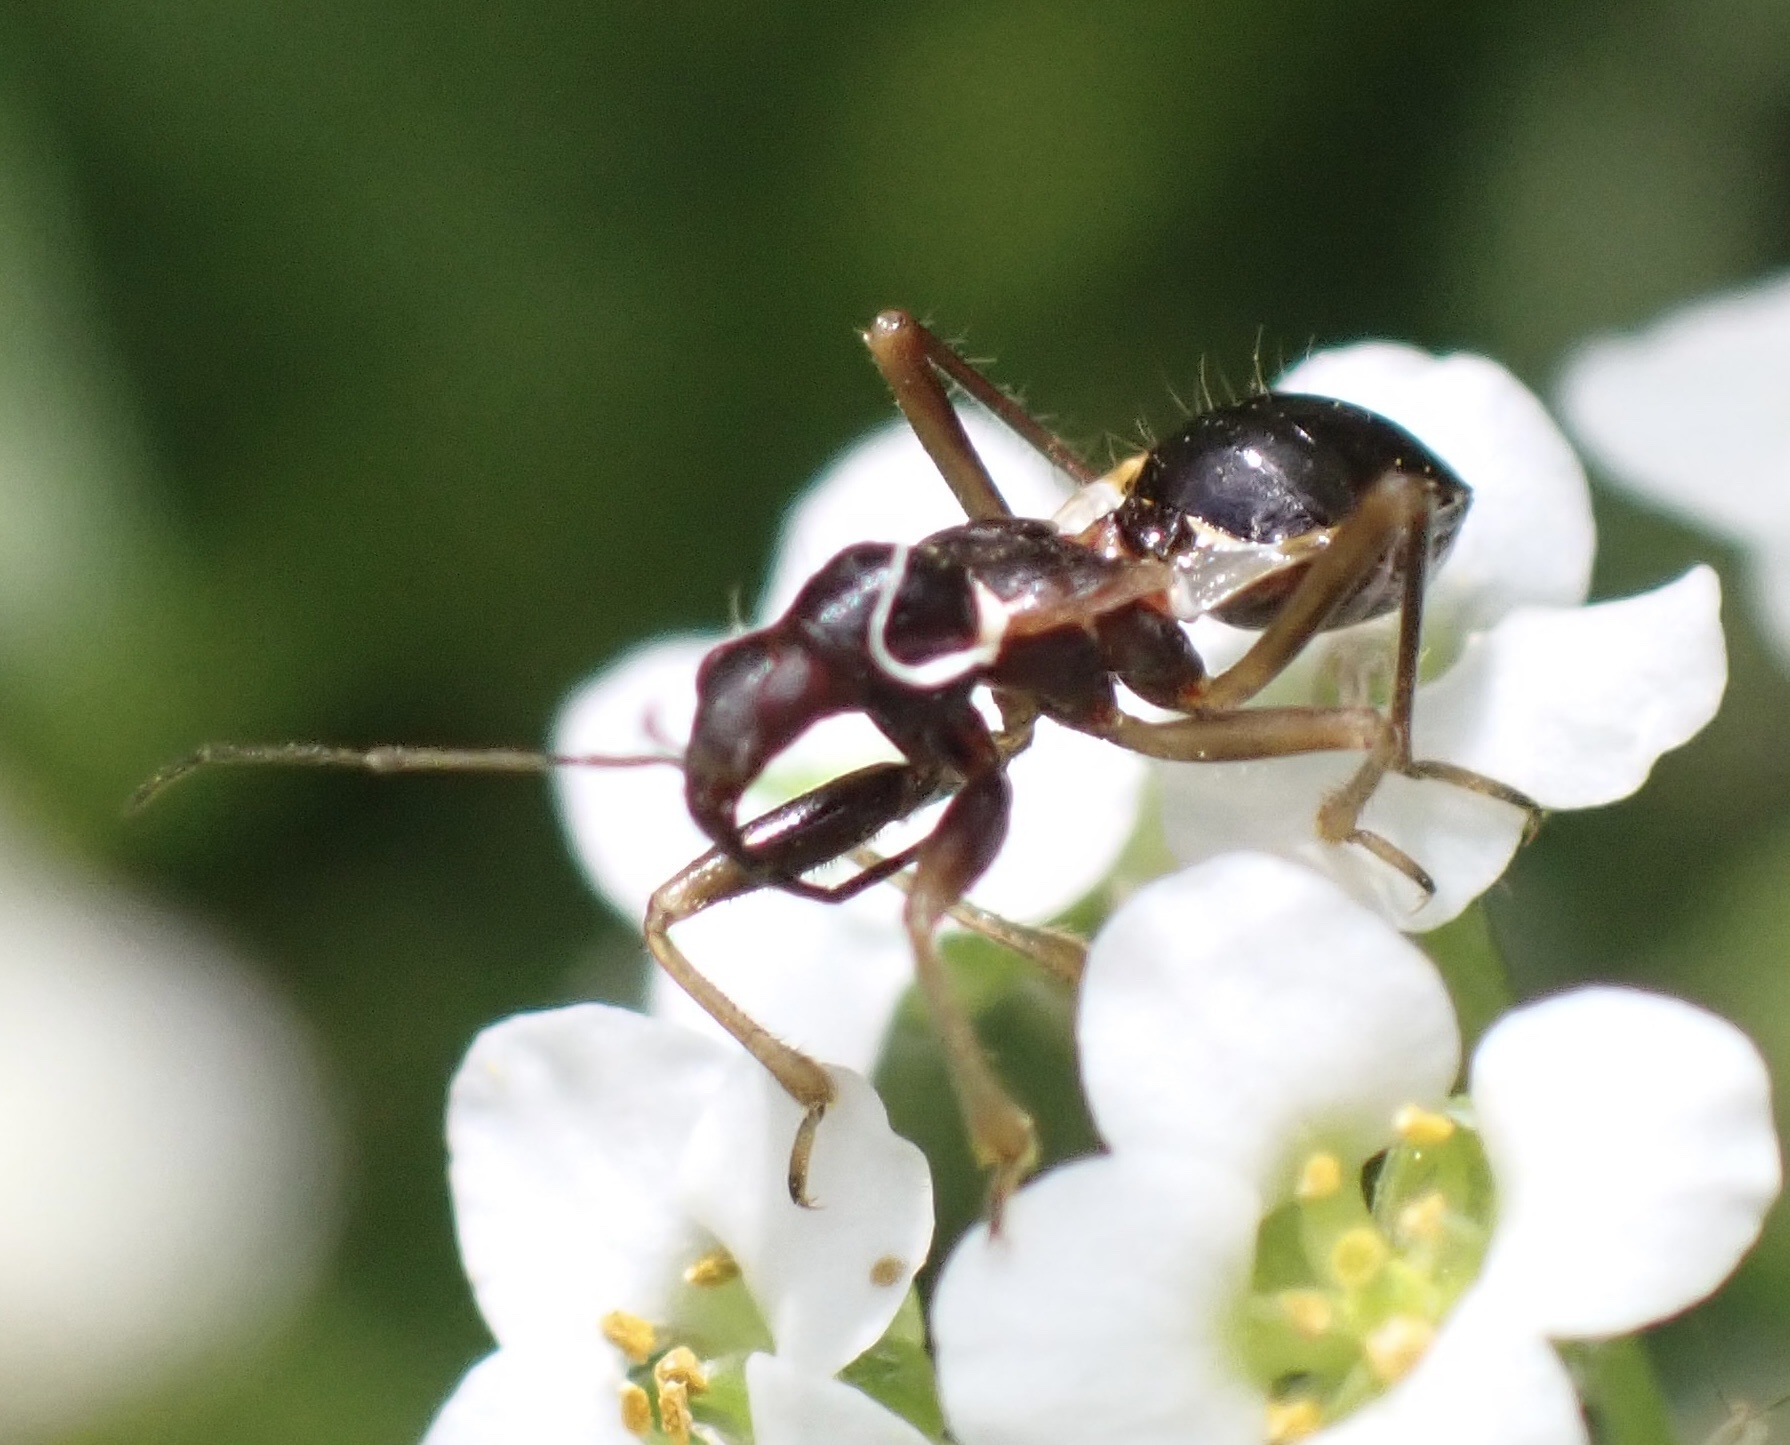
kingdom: Animalia
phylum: Arthropoda
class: Insecta
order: Hemiptera
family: Nabidae
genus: Himacerus
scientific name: Himacerus mirmicoides
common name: Ant damsel bug
